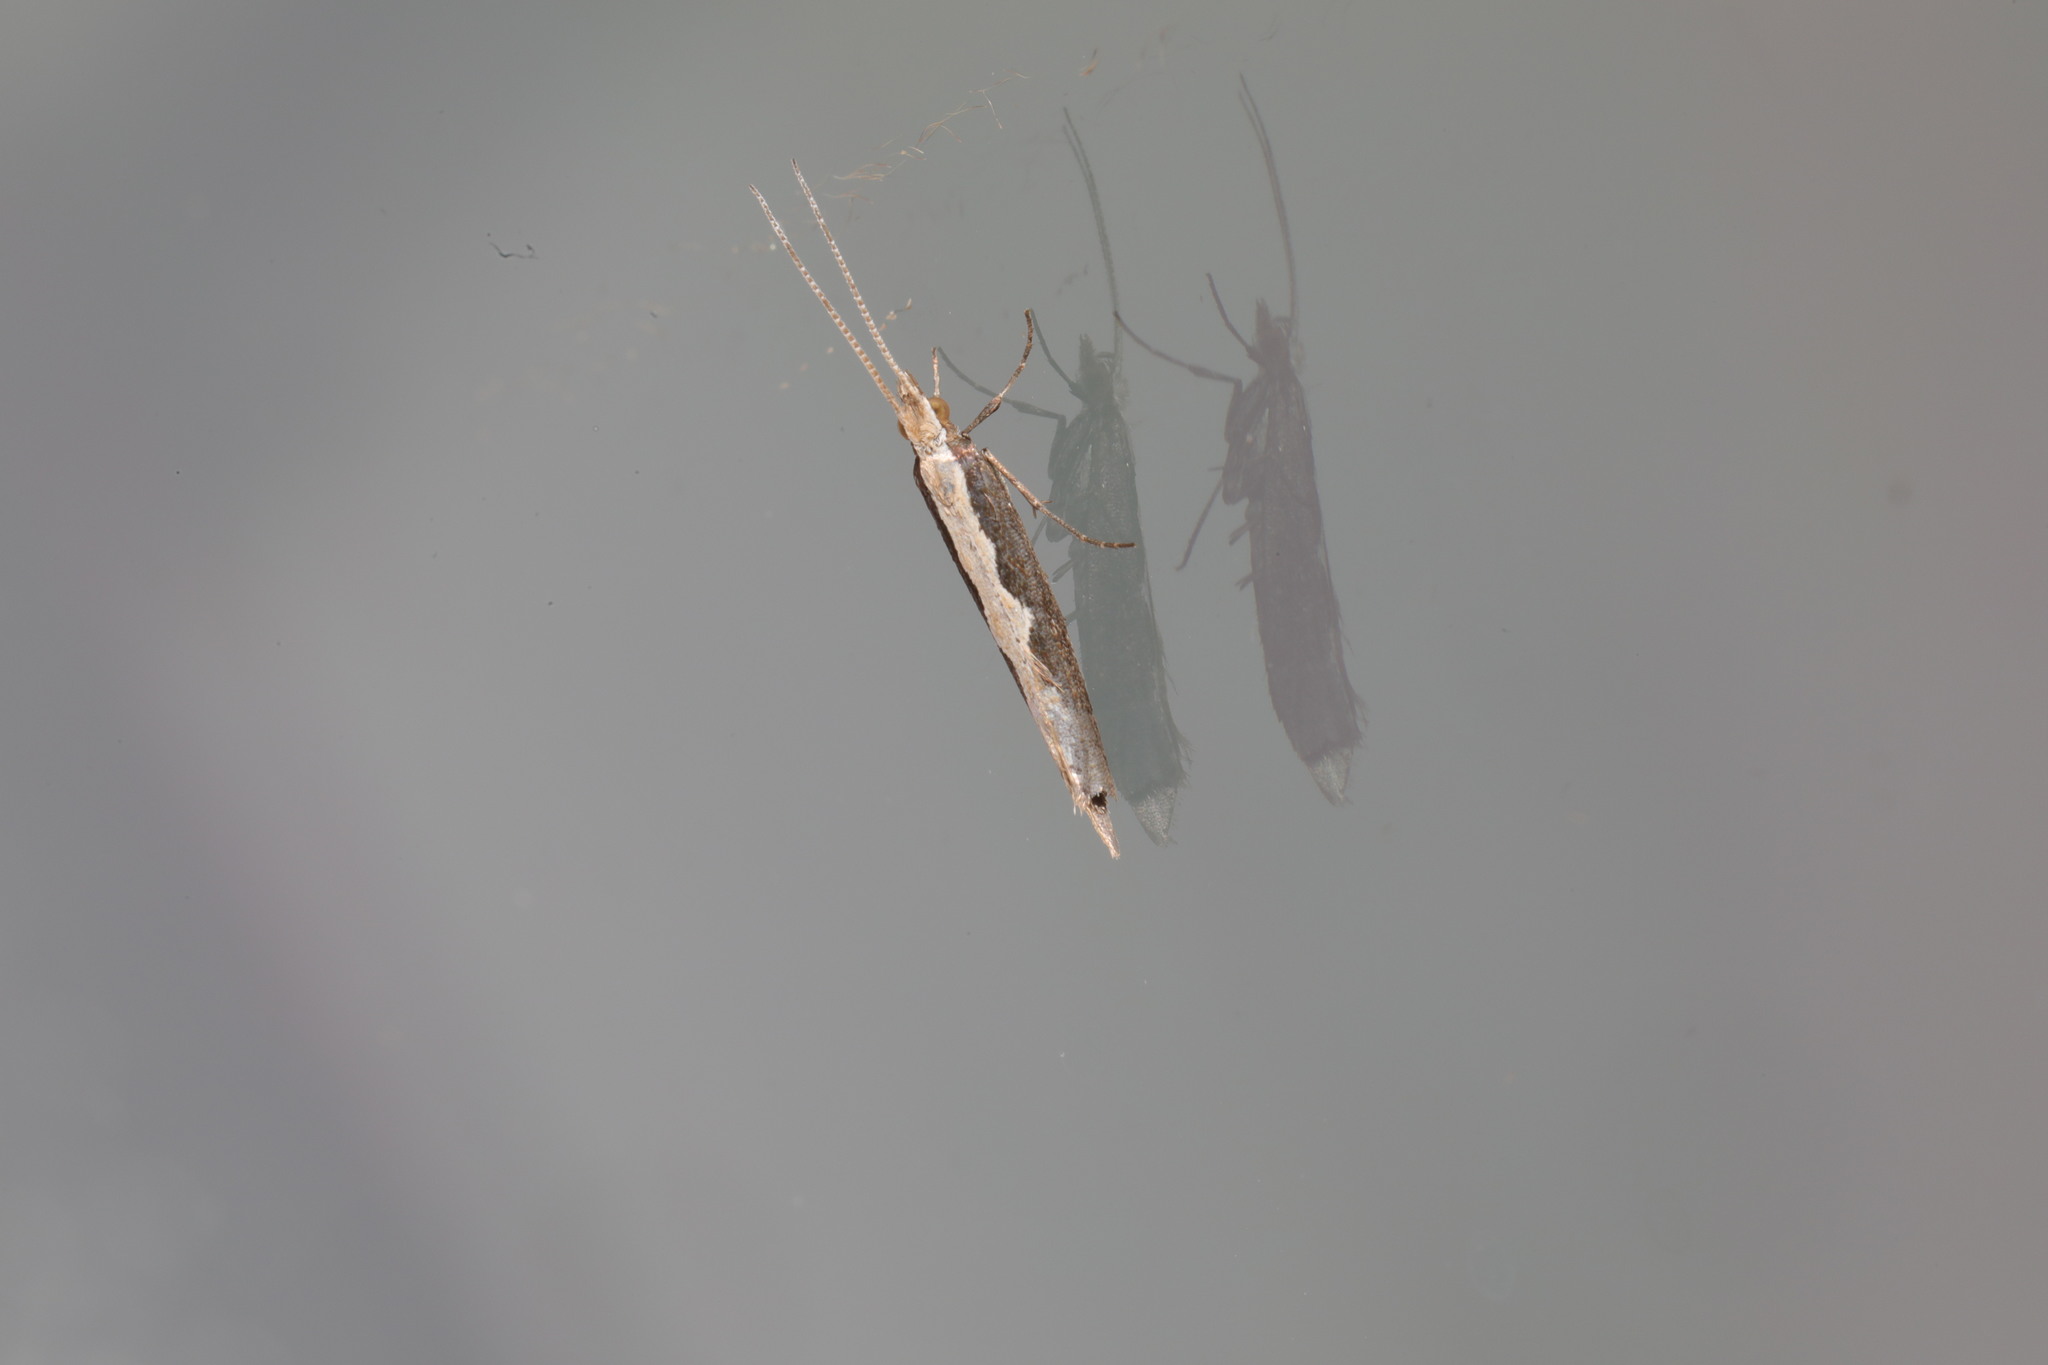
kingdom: Animalia
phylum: Arthropoda
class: Insecta
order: Lepidoptera
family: Plutellidae
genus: Plutella
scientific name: Plutella xylostella
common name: Diamond-back moth
